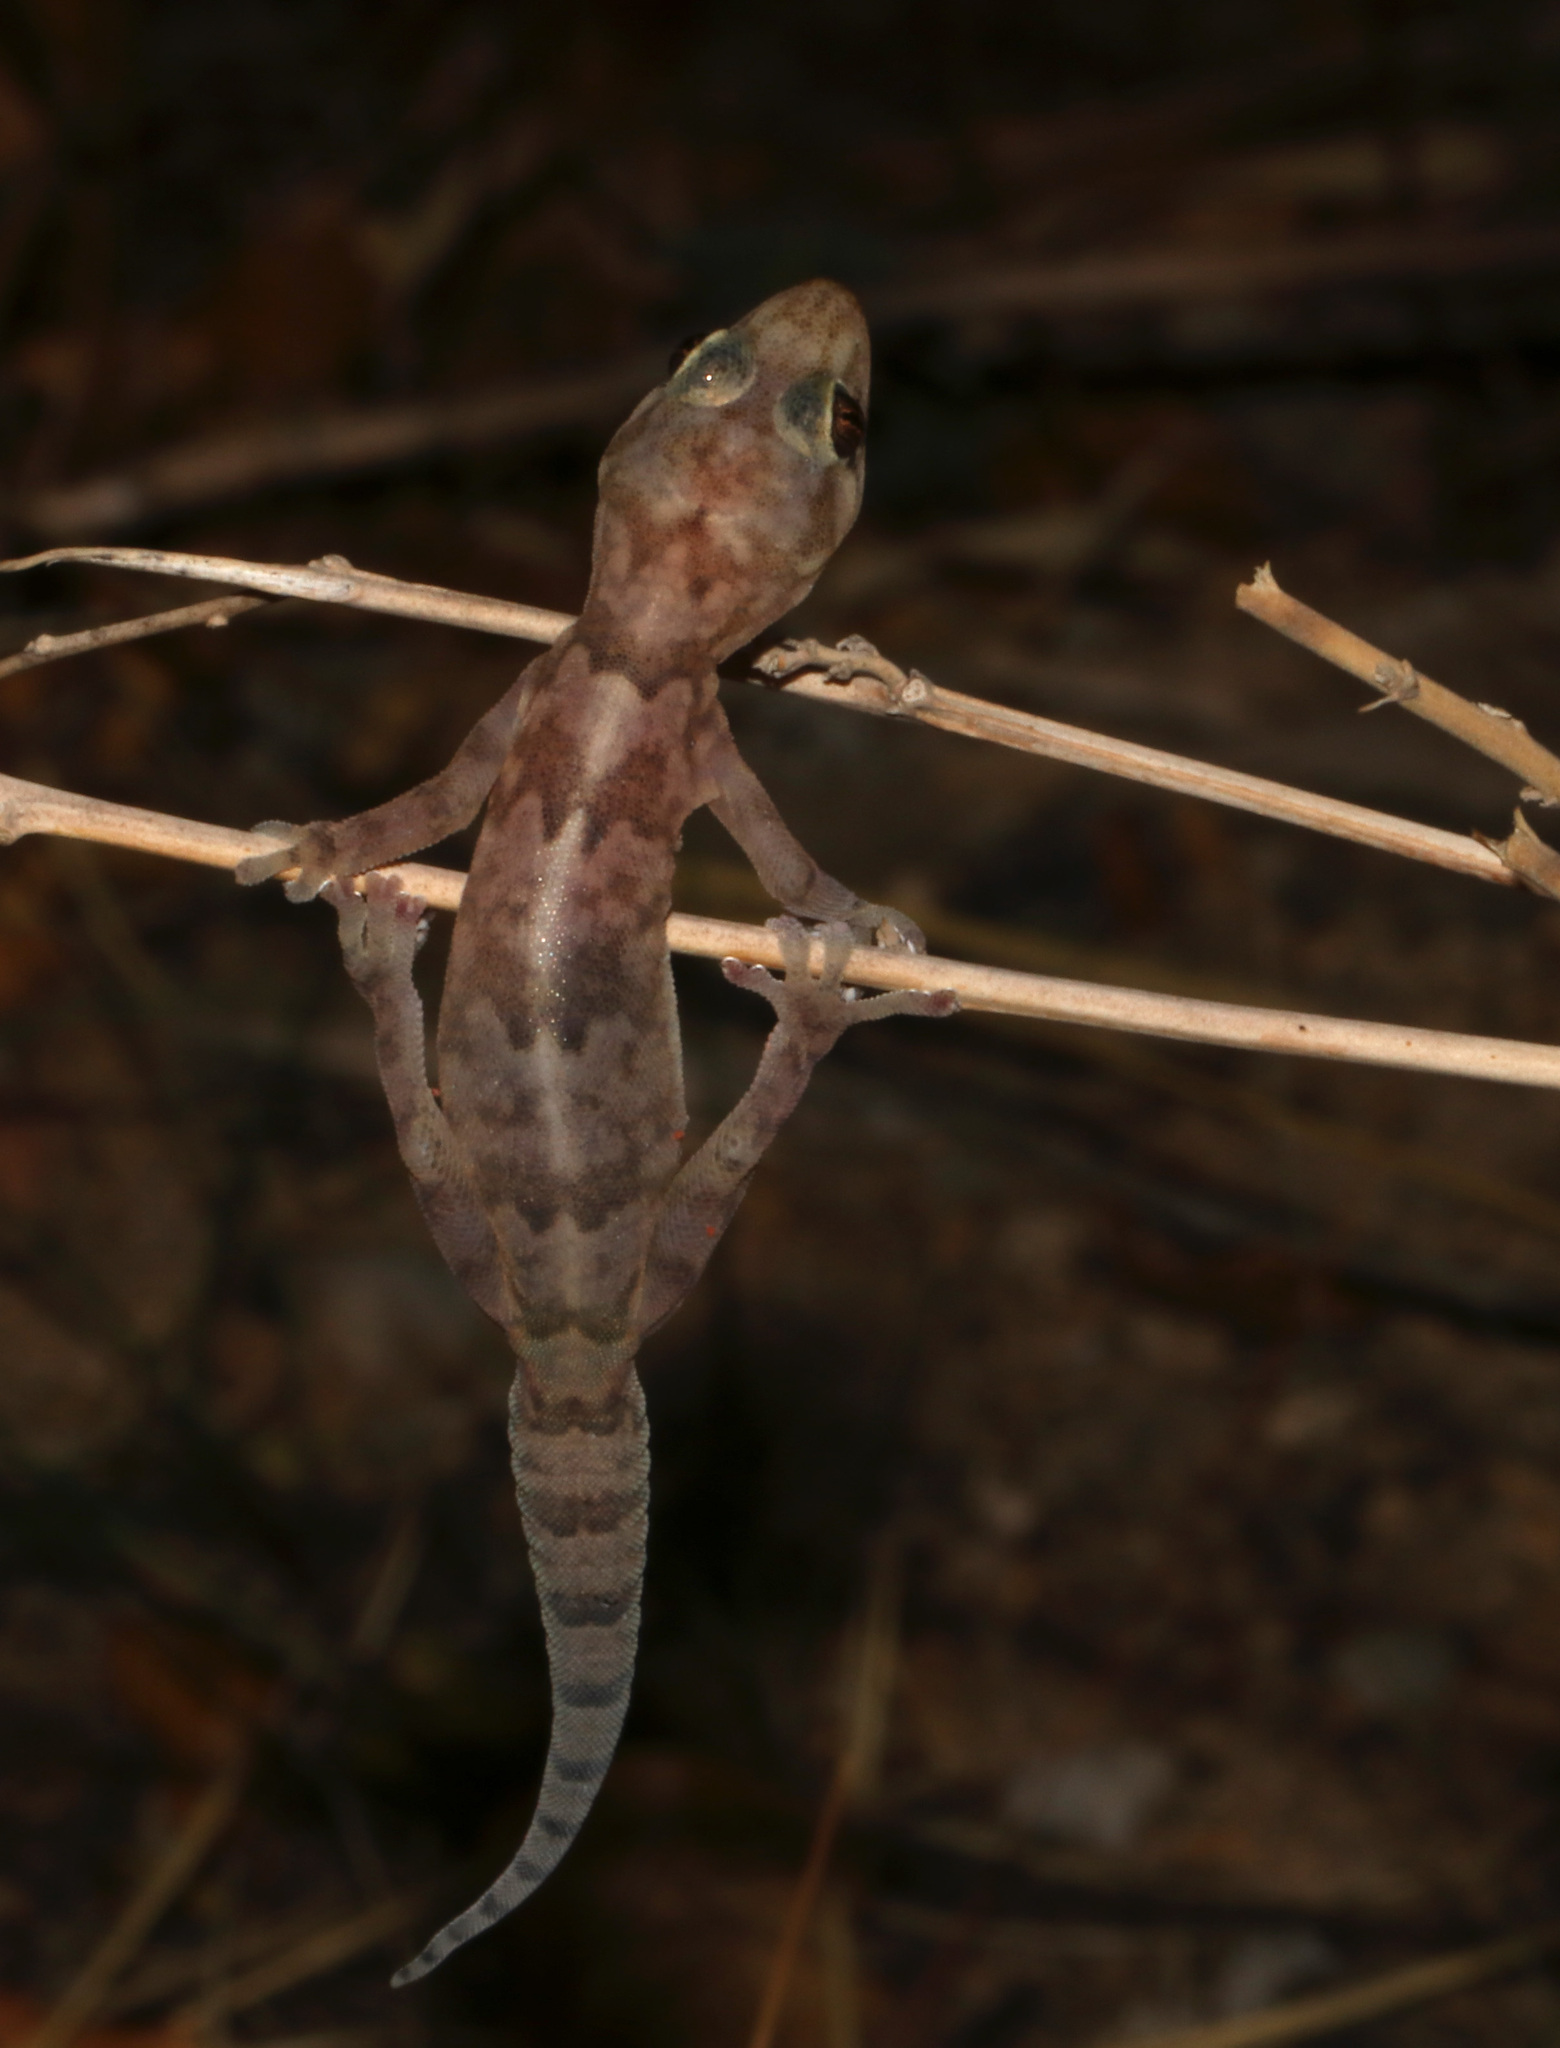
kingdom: Animalia
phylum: Chordata
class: Squamata
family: Gekkonidae
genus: Afroedura
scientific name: Afroedura africana
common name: African rock gecko
